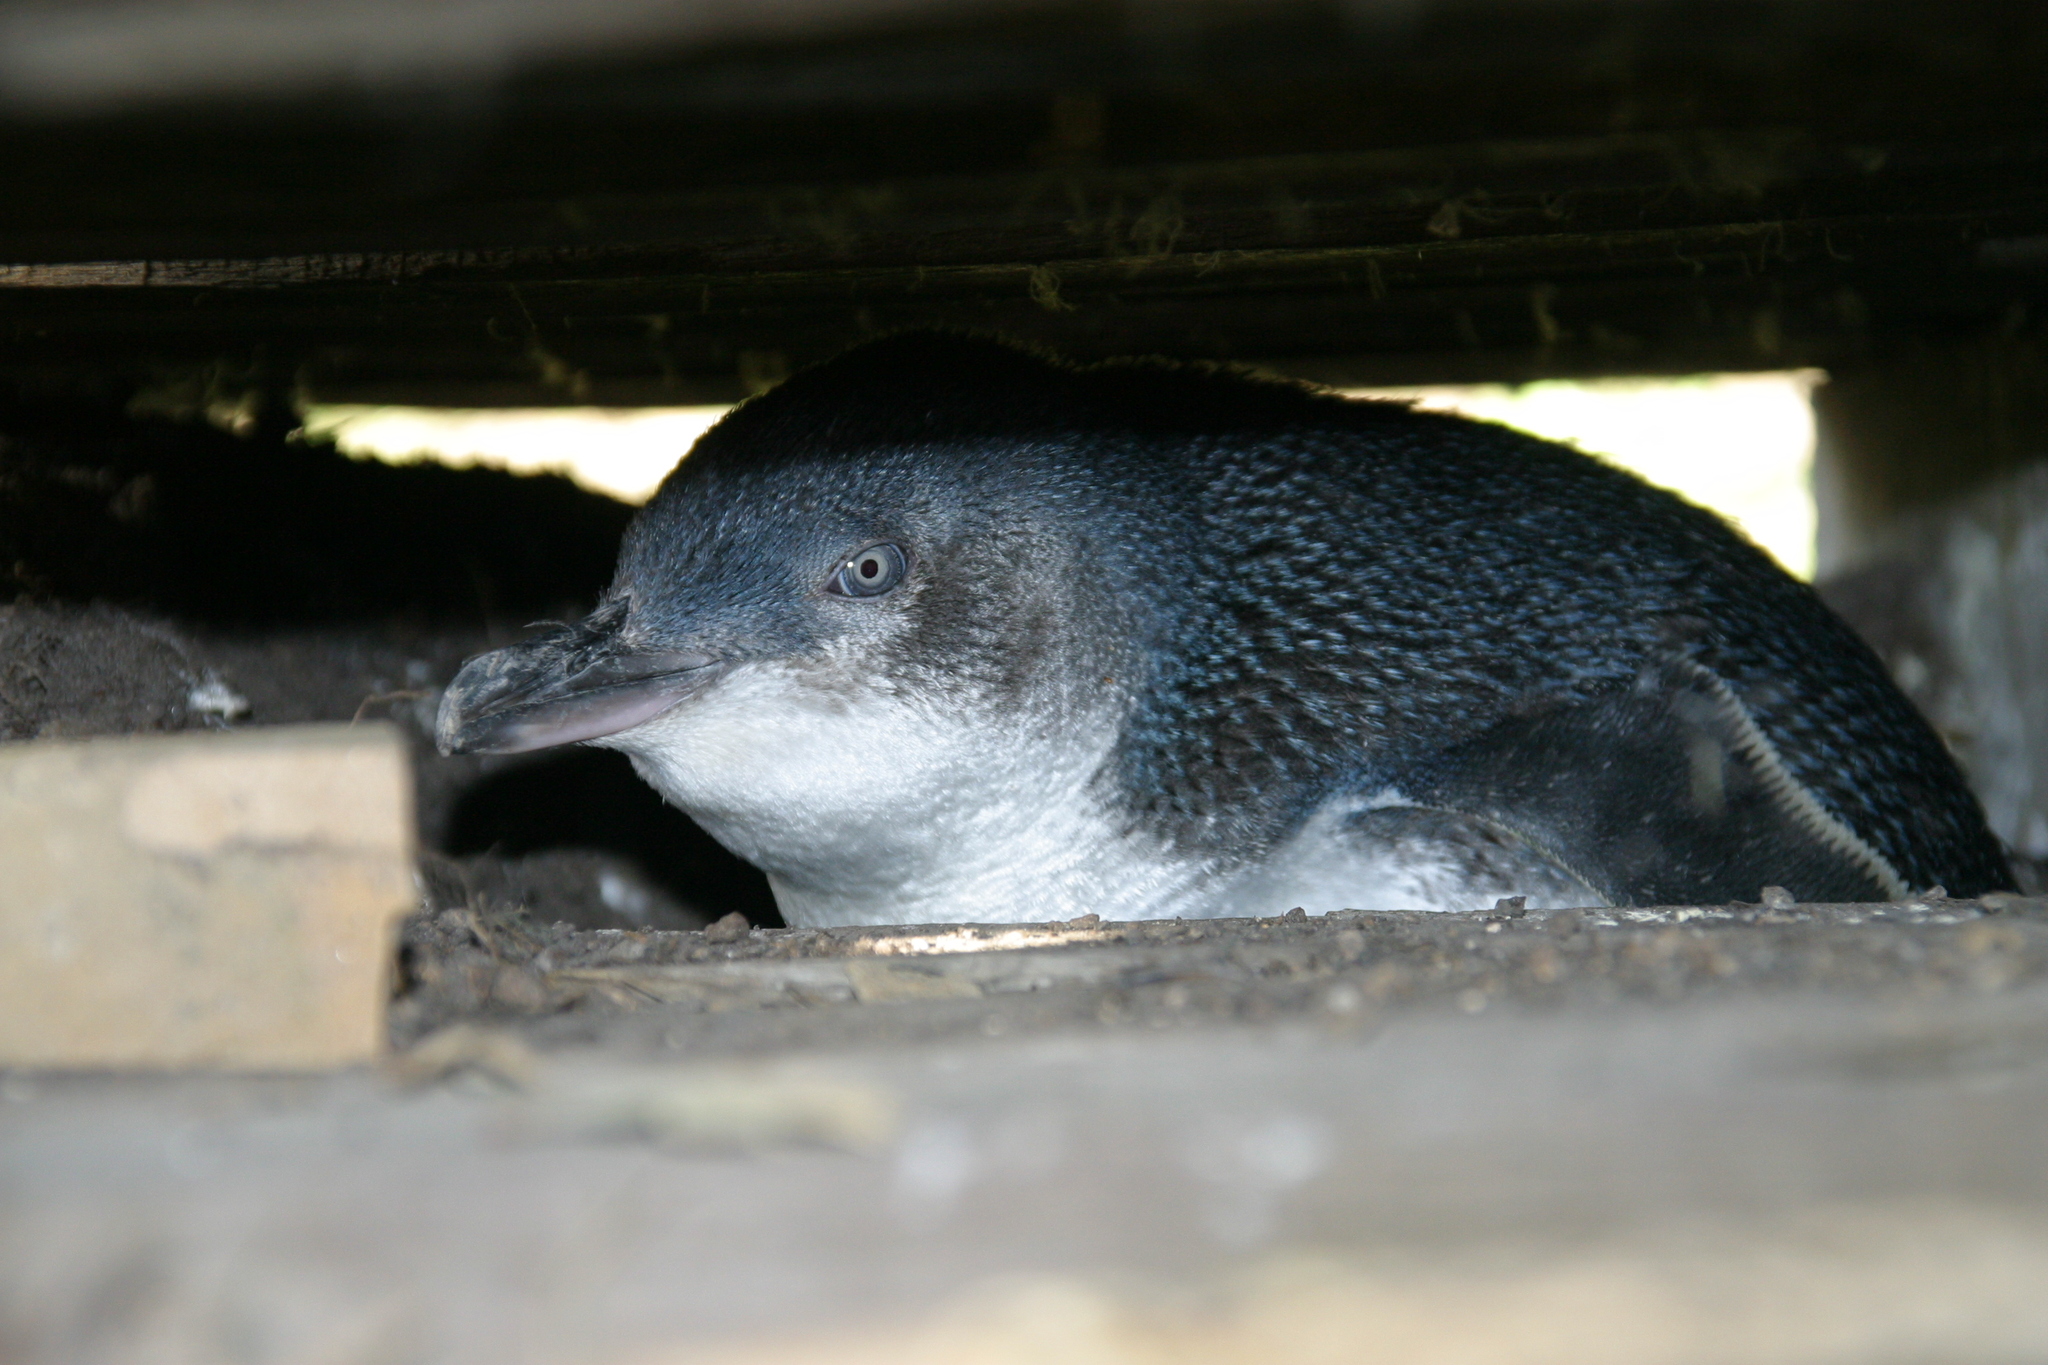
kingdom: Animalia
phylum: Chordata
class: Aves
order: Sphenisciformes
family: Spheniscidae
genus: Eudyptula
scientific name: Eudyptula minor
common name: Little penguin
